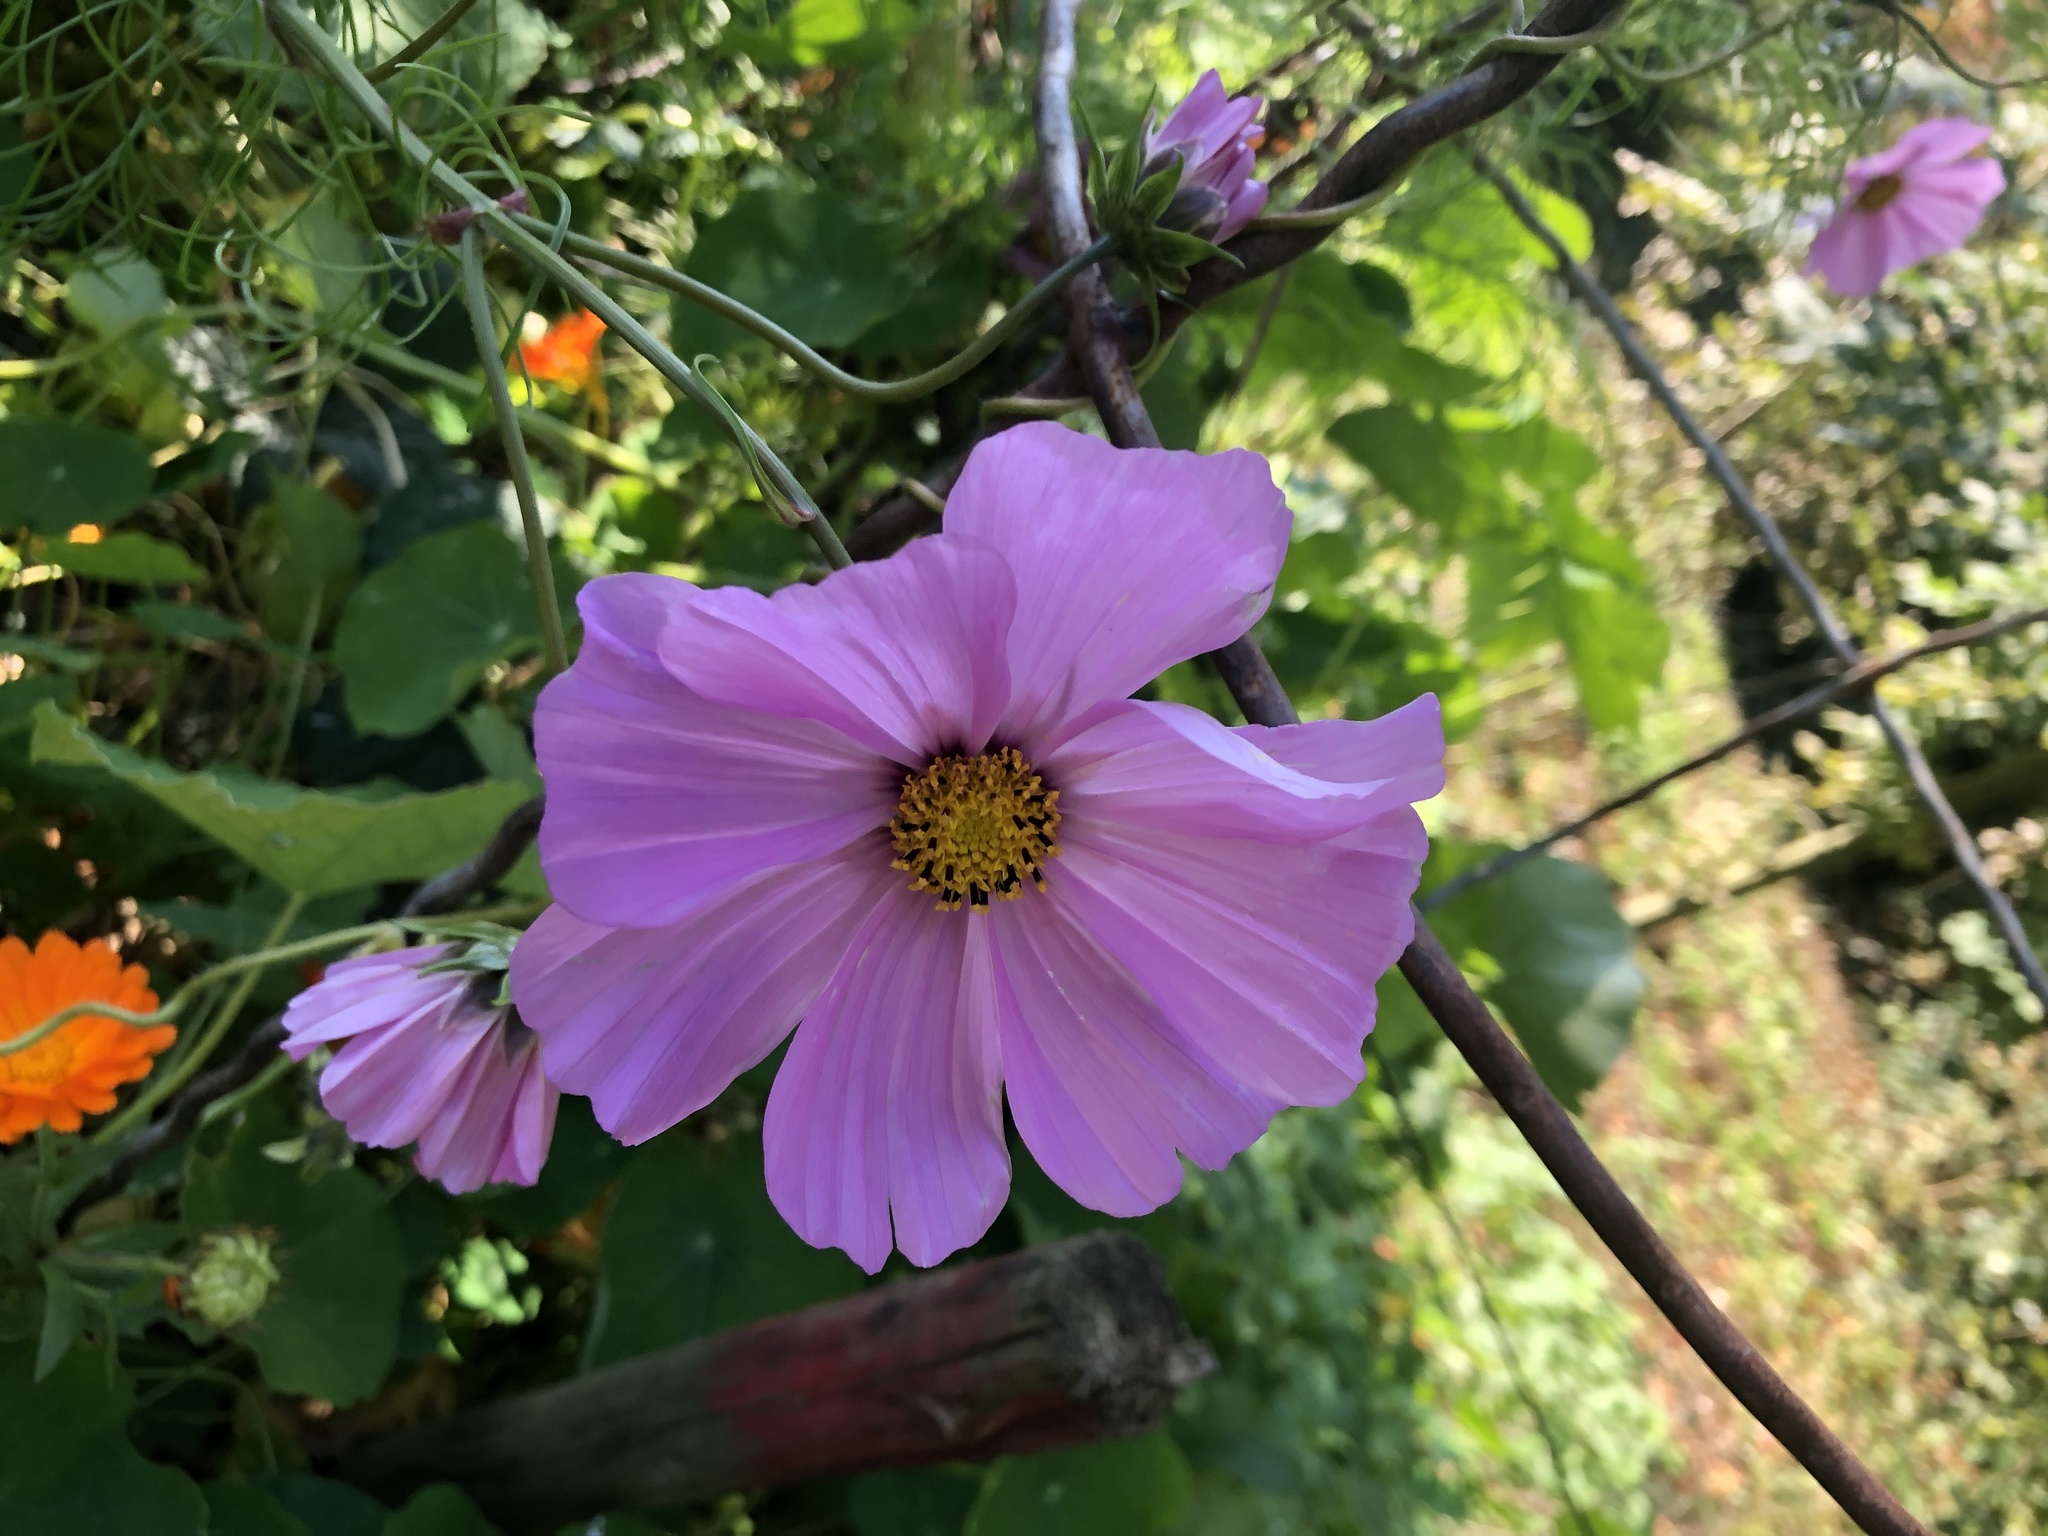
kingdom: Plantae
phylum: Tracheophyta
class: Magnoliopsida
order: Asterales
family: Asteraceae
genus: Cosmos
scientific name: Cosmos bipinnatus
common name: Garden cosmos
